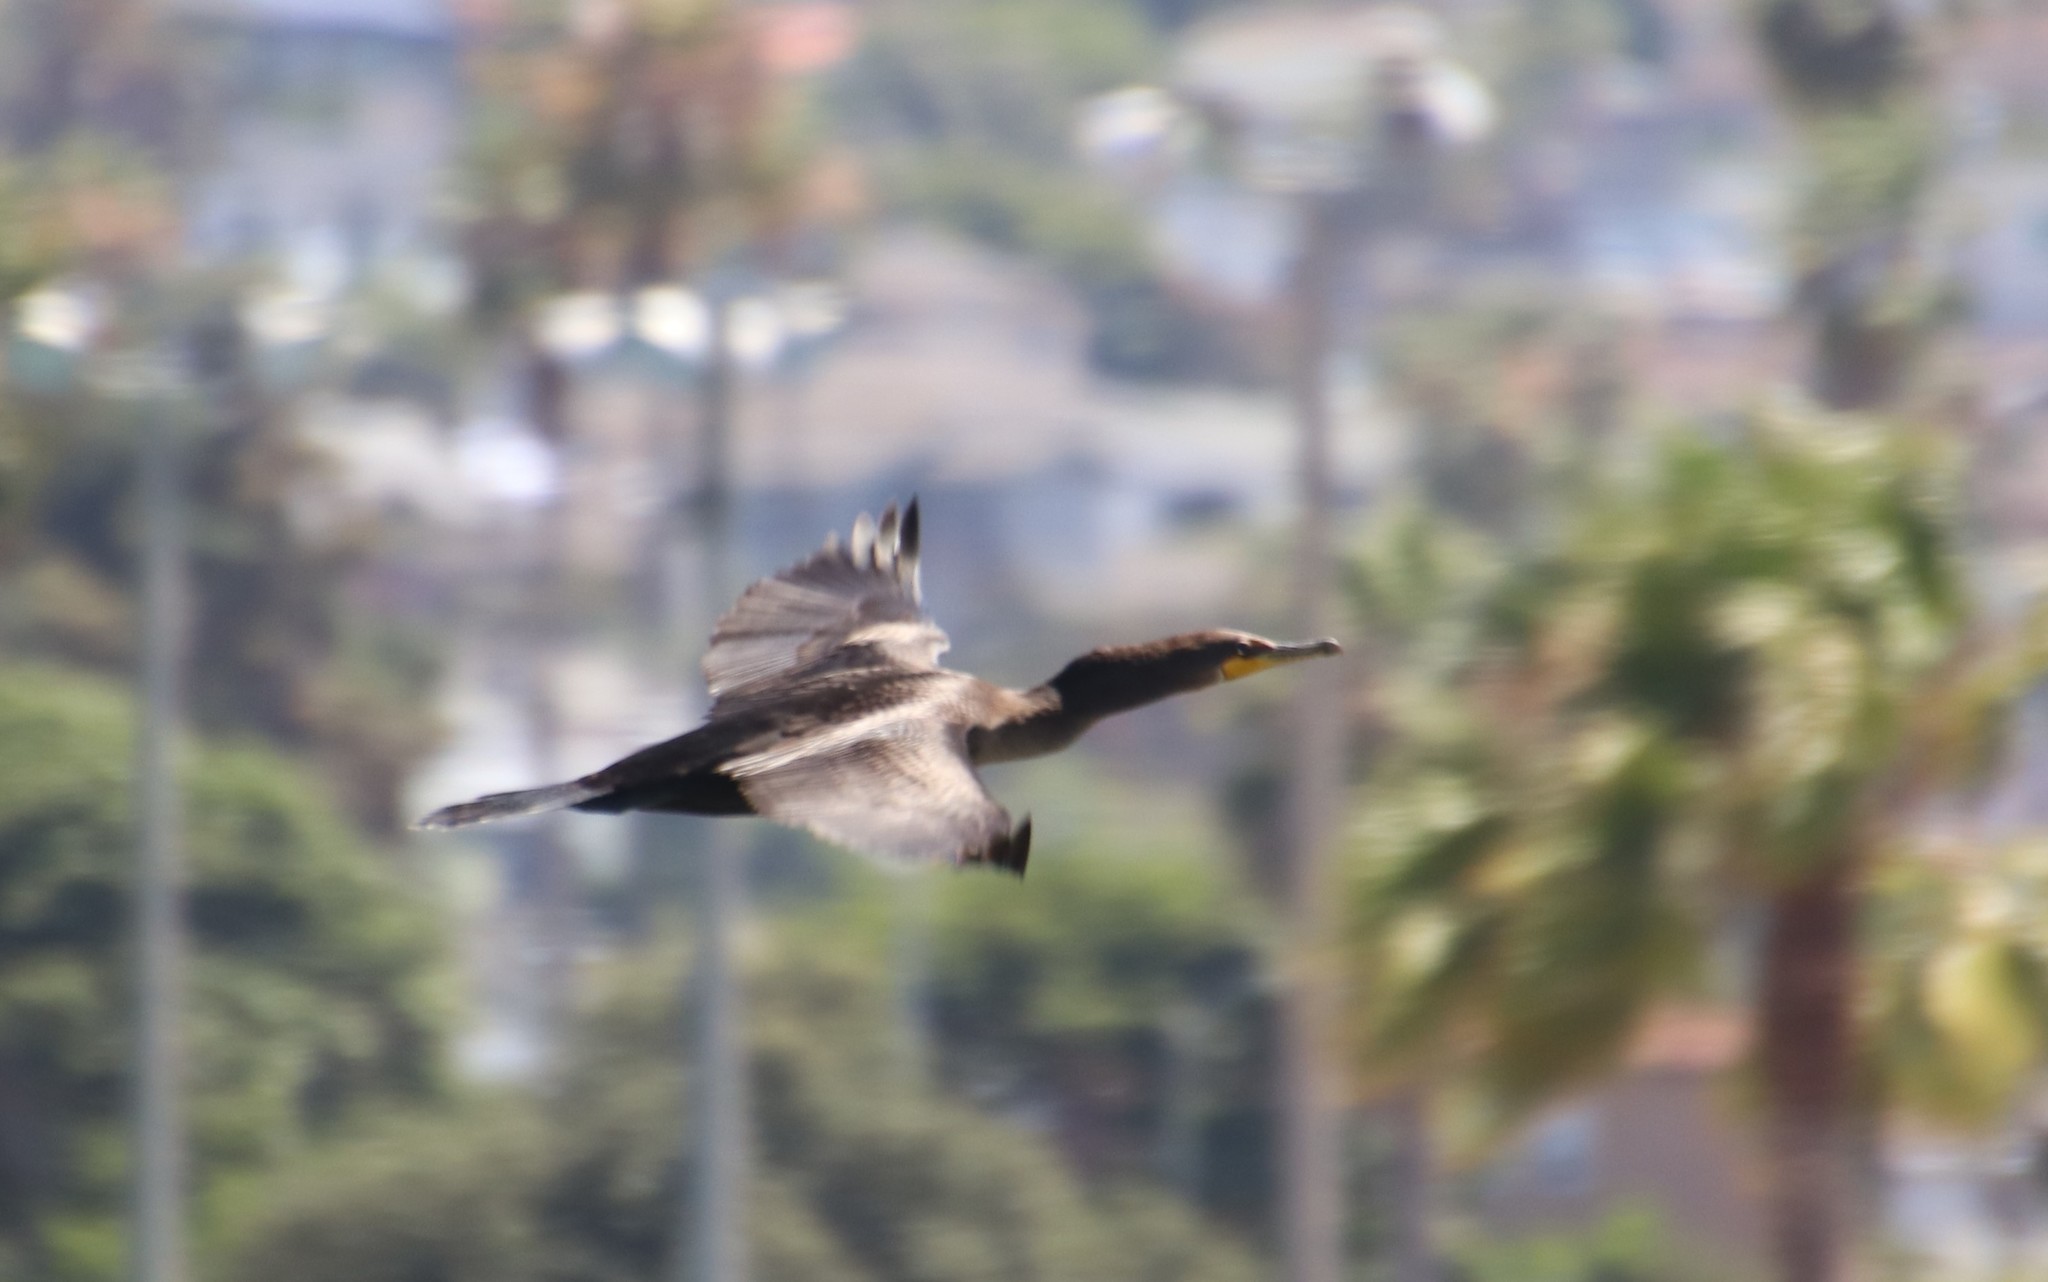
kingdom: Animalia
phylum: Chordata
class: Aves
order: Suliformes
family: Phalacrocoracidae
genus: Phalacrocorax
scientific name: Phalacrocorax auritus
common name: Double-crested cormorant
